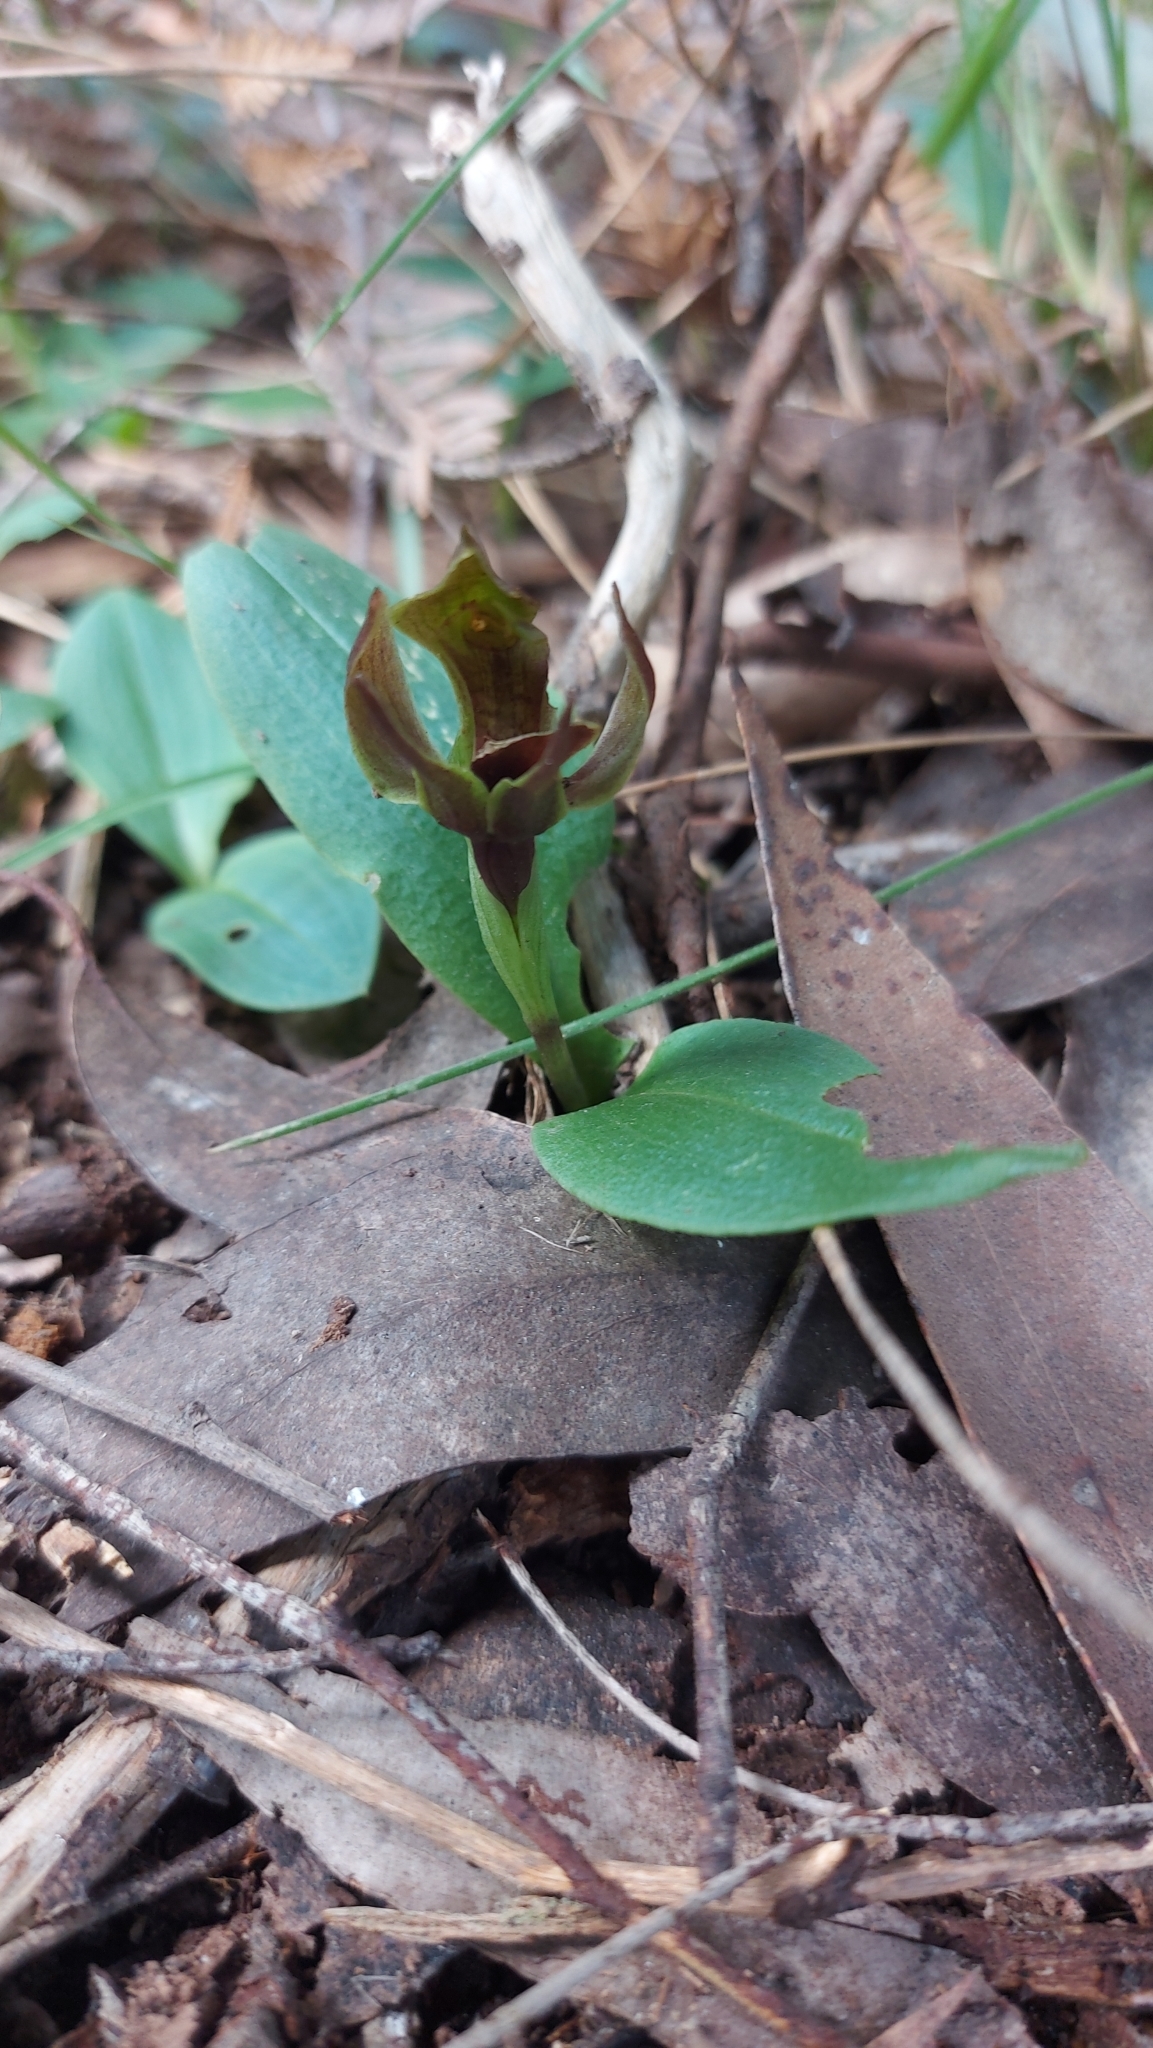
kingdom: Plantae
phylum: Tracheophyta
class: Liliopsida
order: Asparagales
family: Orchidaceae
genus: Chiloglottis
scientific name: Chiloglottis valida
